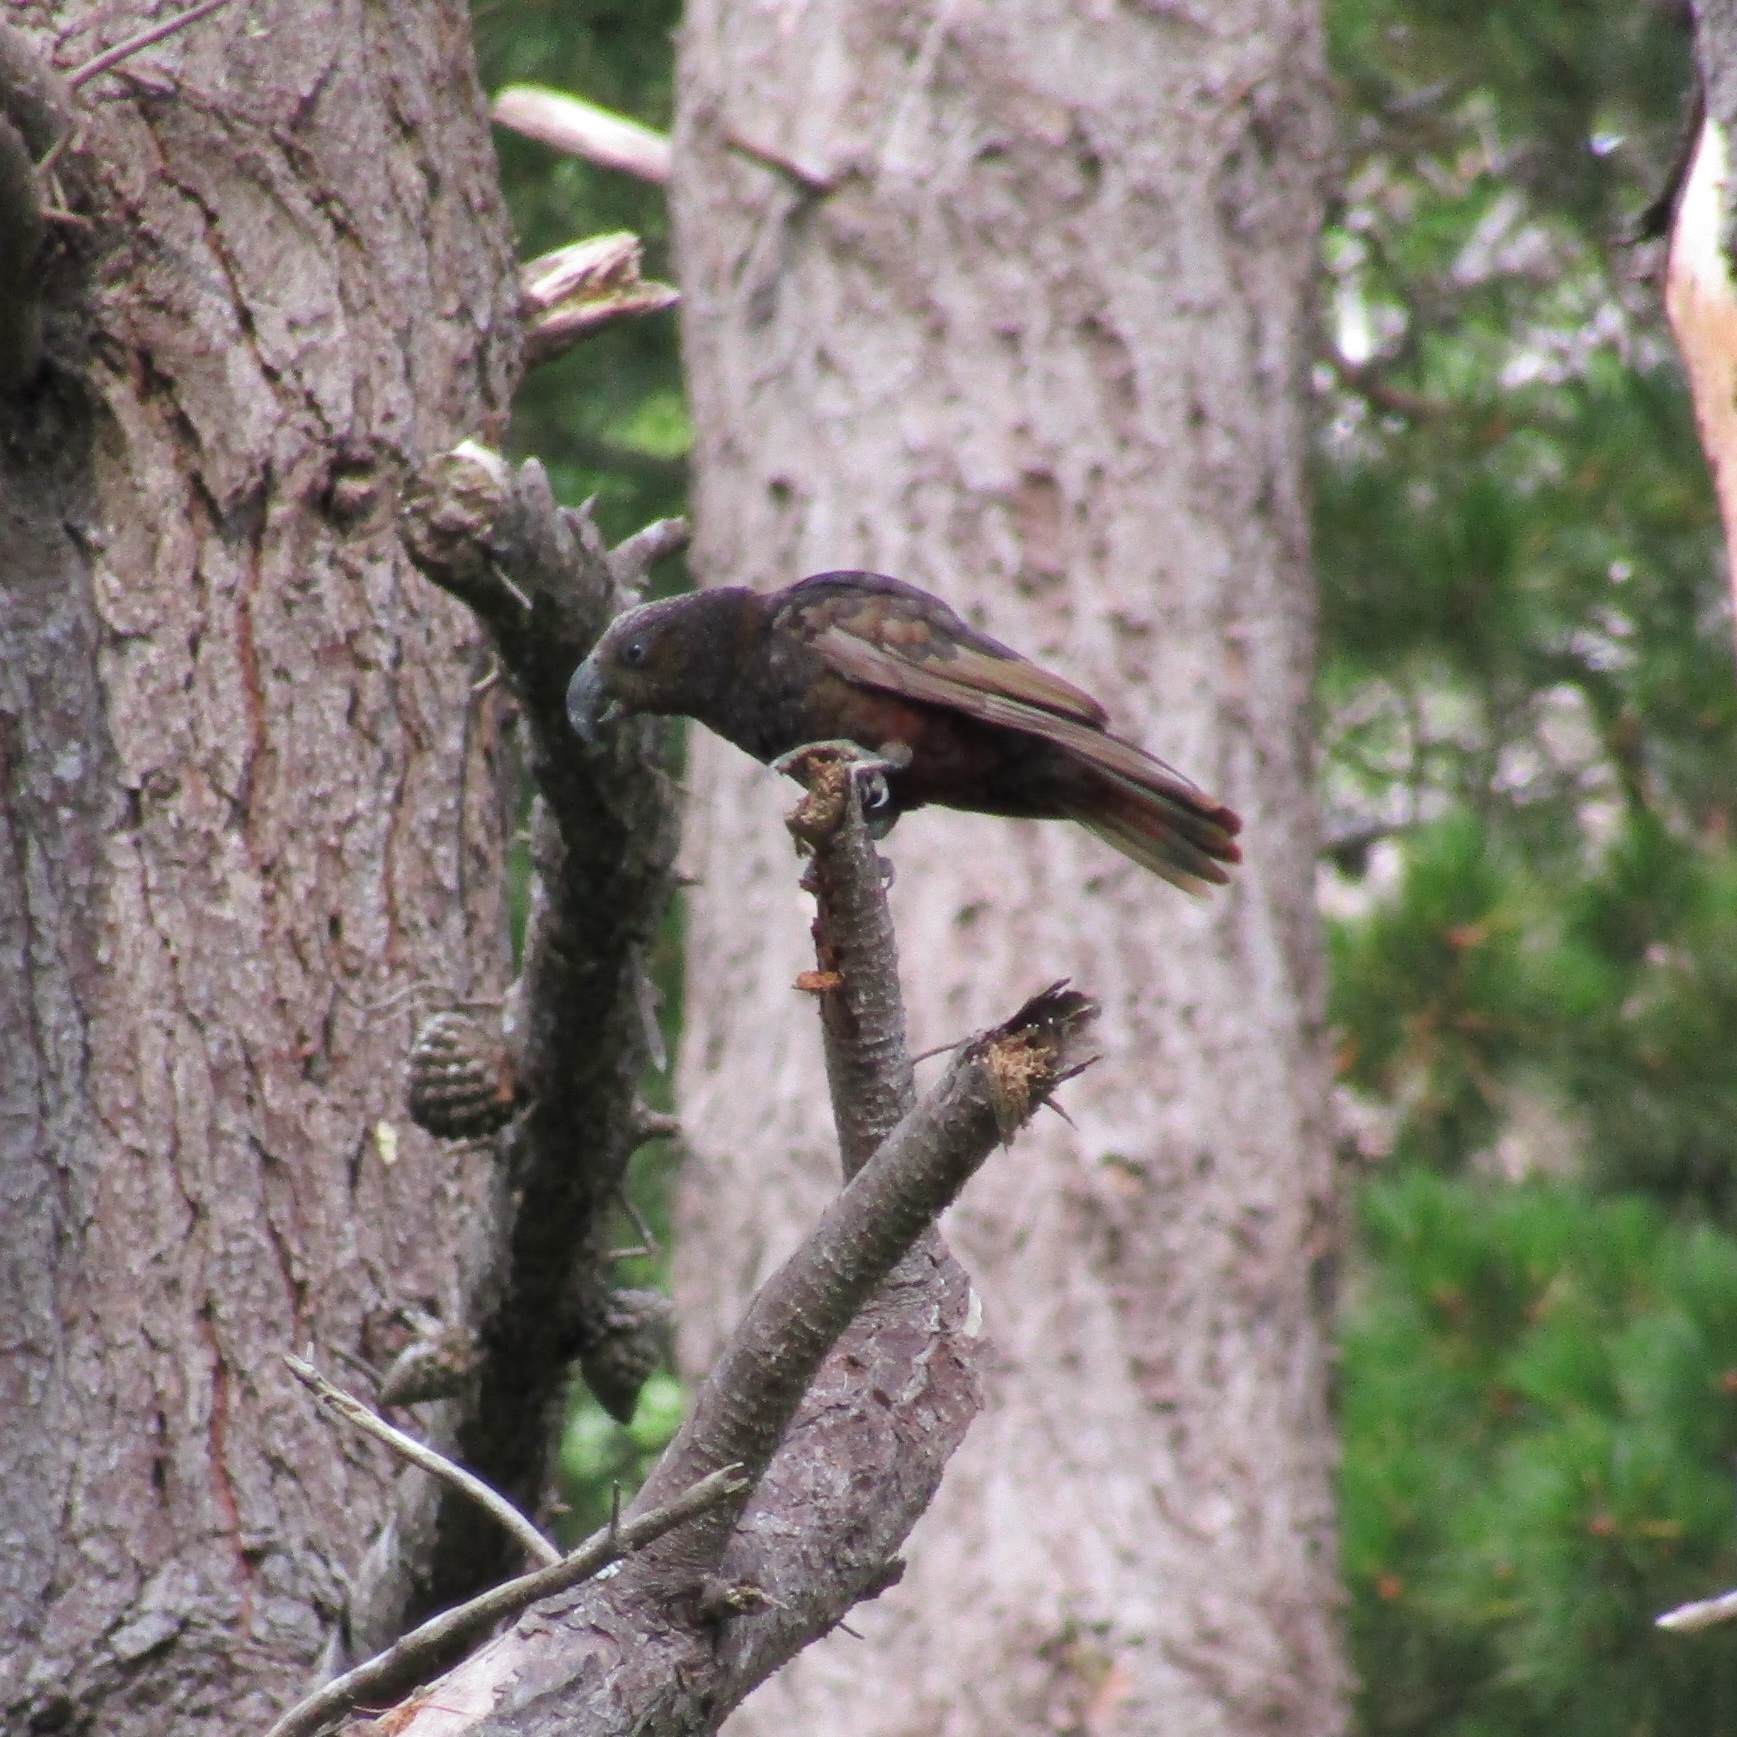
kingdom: Animalia
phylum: Chordata
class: Aves
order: Psittaciformes
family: Psittacidae
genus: Nestor
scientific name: Nestor meridionalis
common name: New zealand kaka
